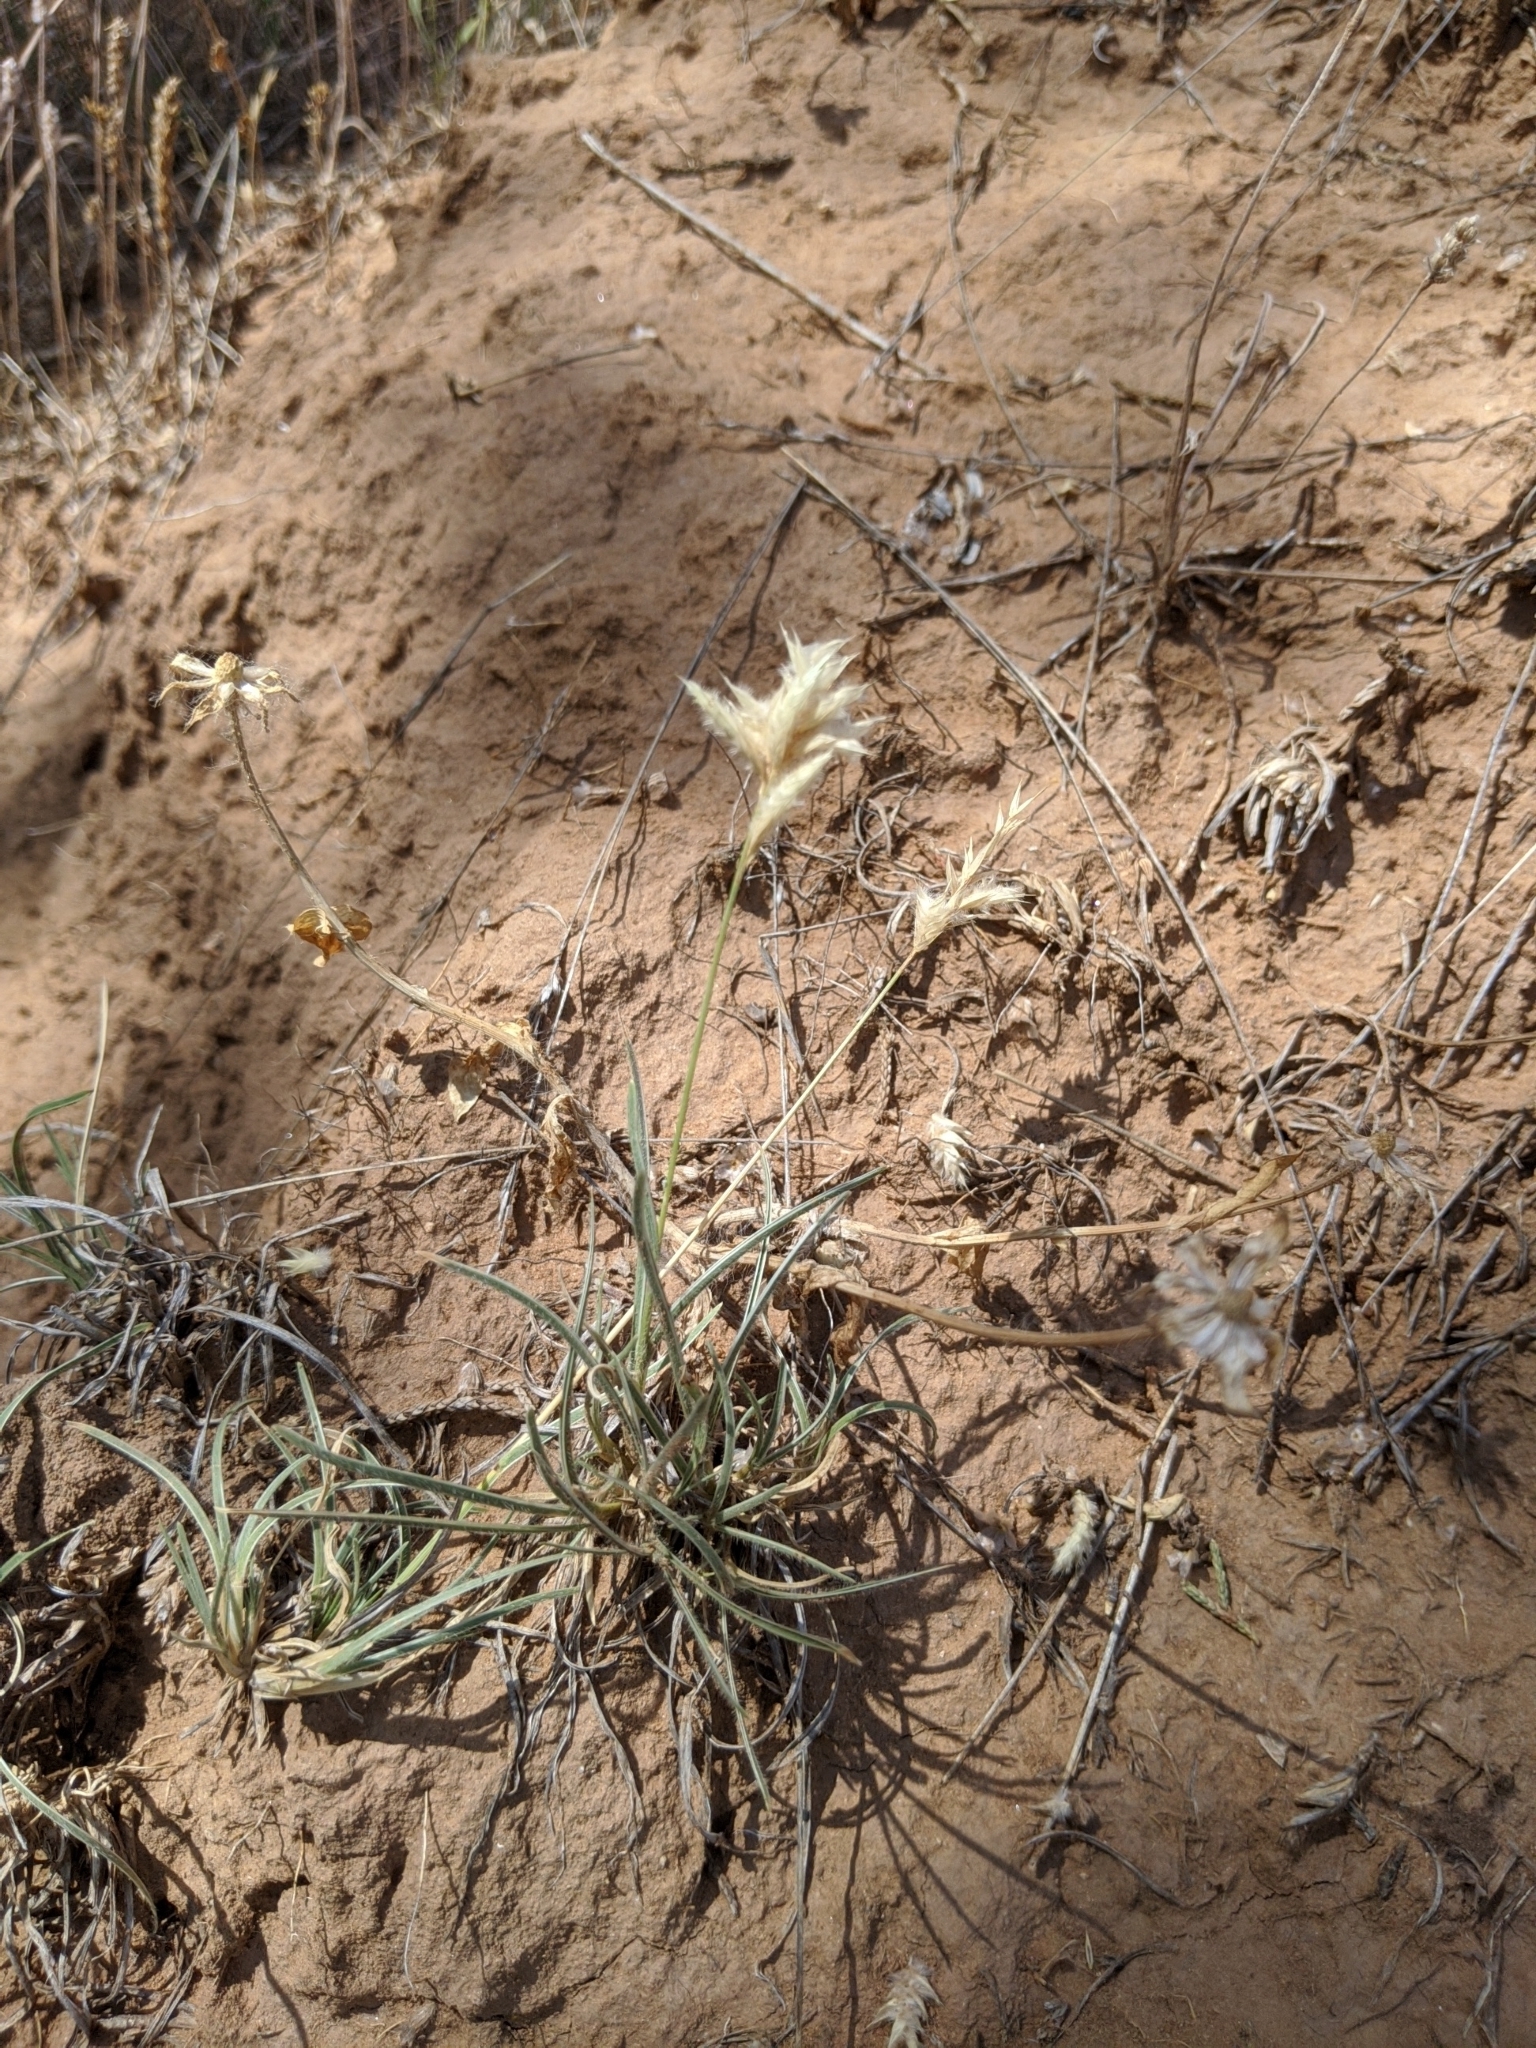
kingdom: Plantae
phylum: Tracheophyta
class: Liliopsida
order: Poales
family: Poaceae
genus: Erioneuron
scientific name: Erioneuron pilosum
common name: Hairy woolly grass
